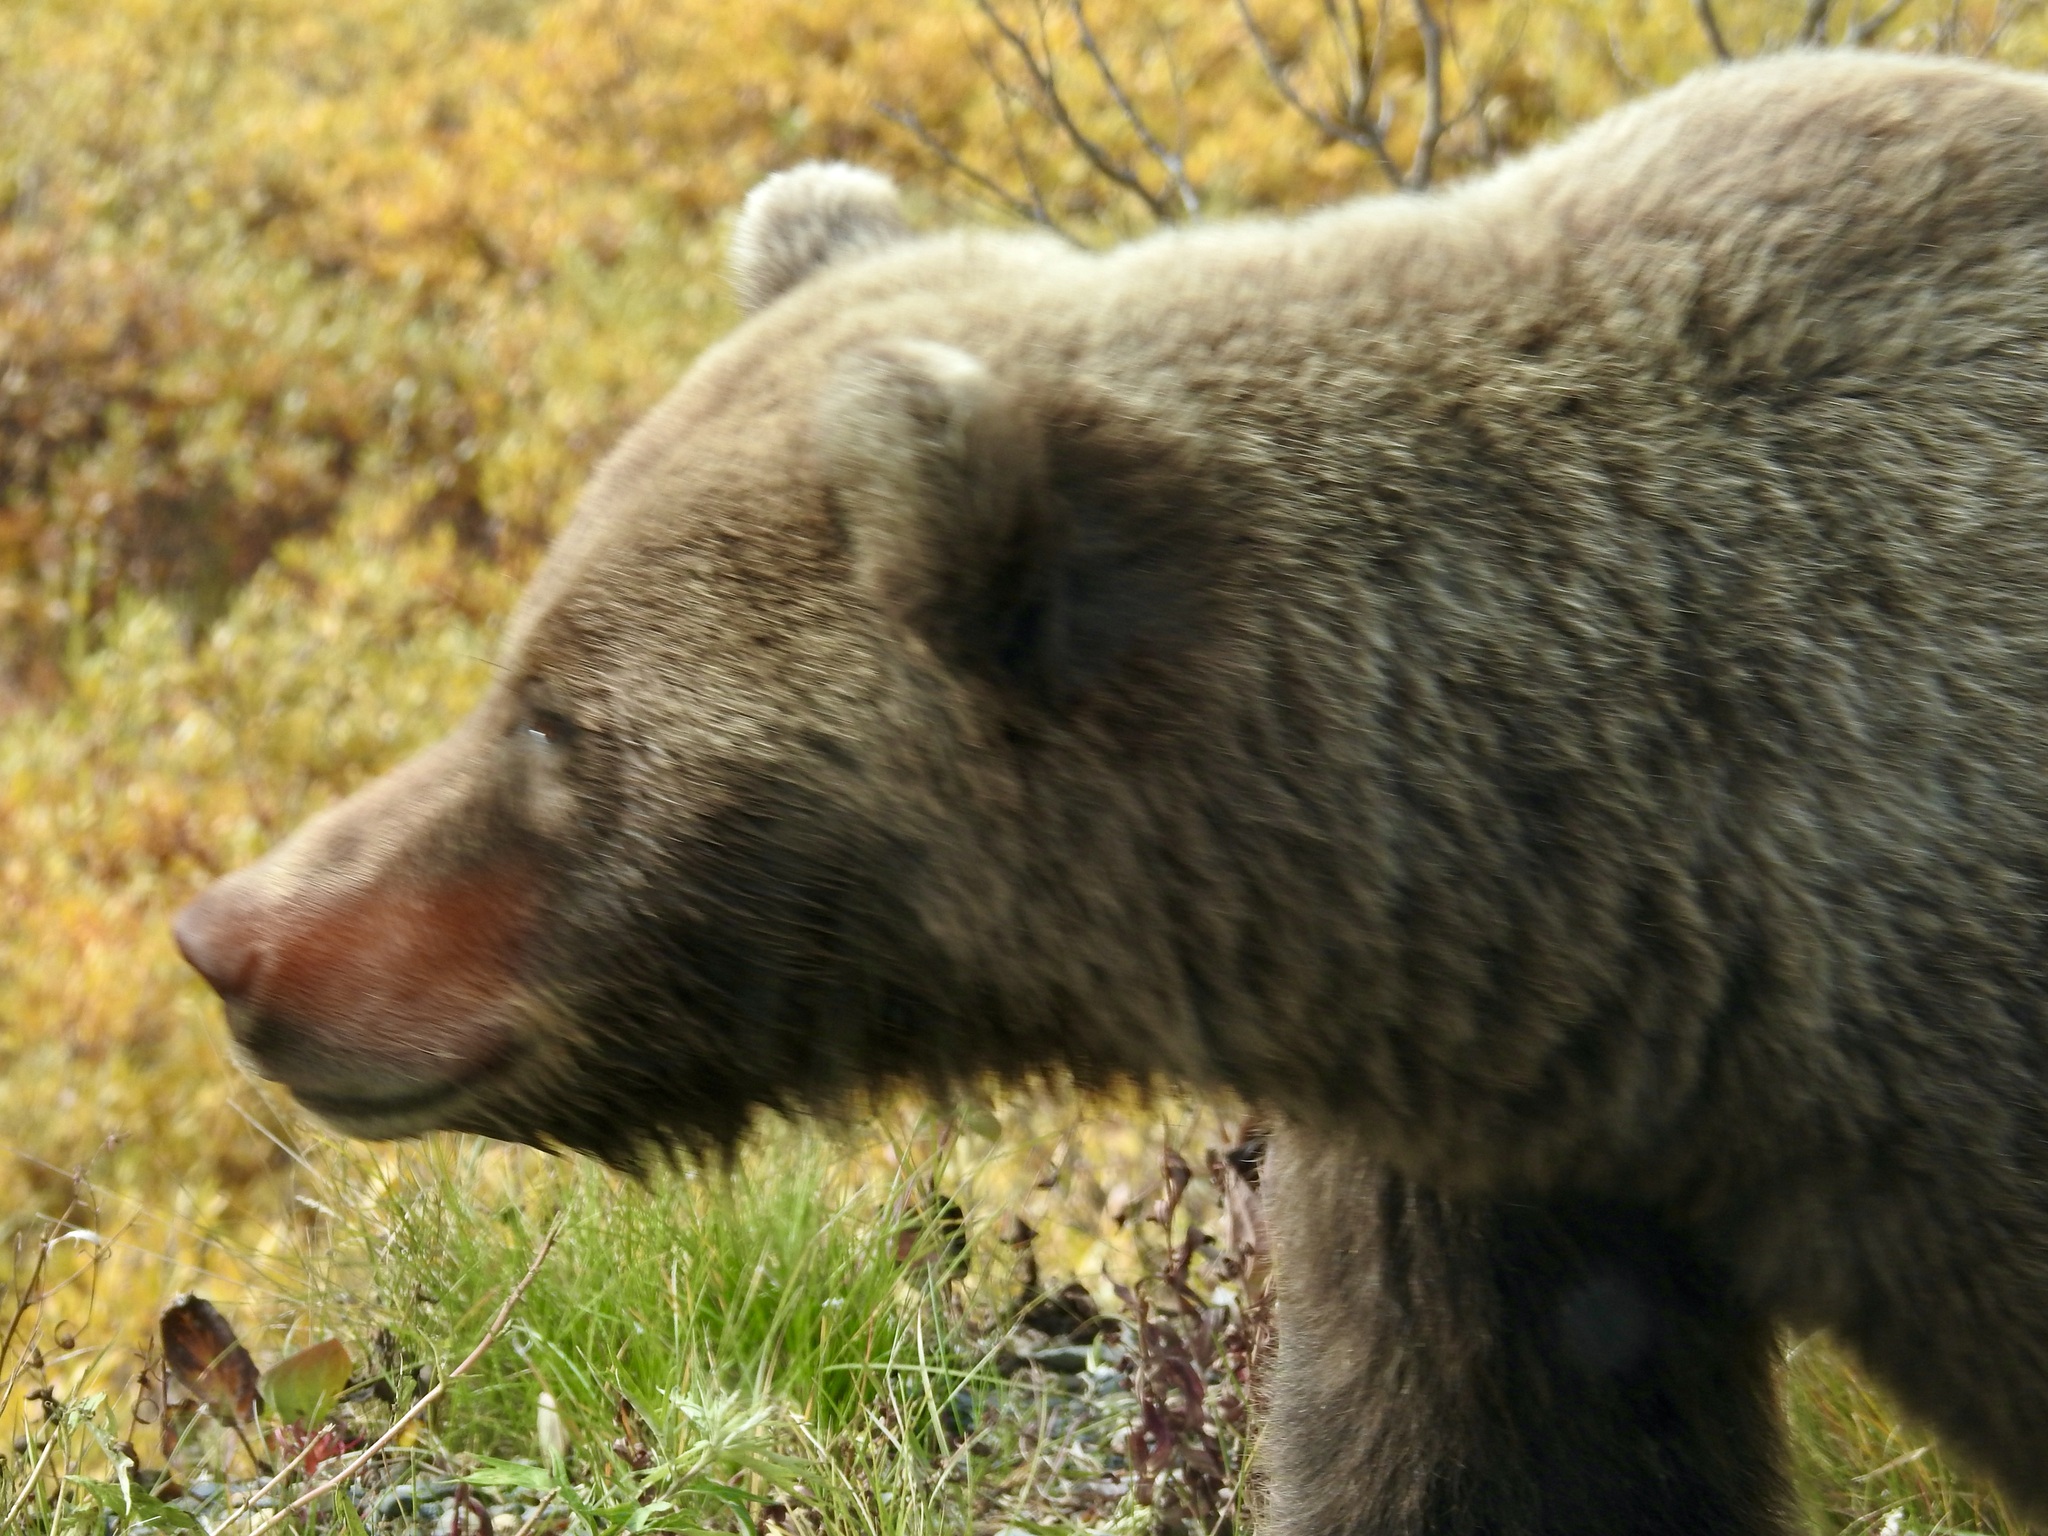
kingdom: Animalia
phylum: Chordata
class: Mammalia
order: Carnivora
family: Ursidae
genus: Ursus
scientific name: Ursus arctos
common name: Brown bear
